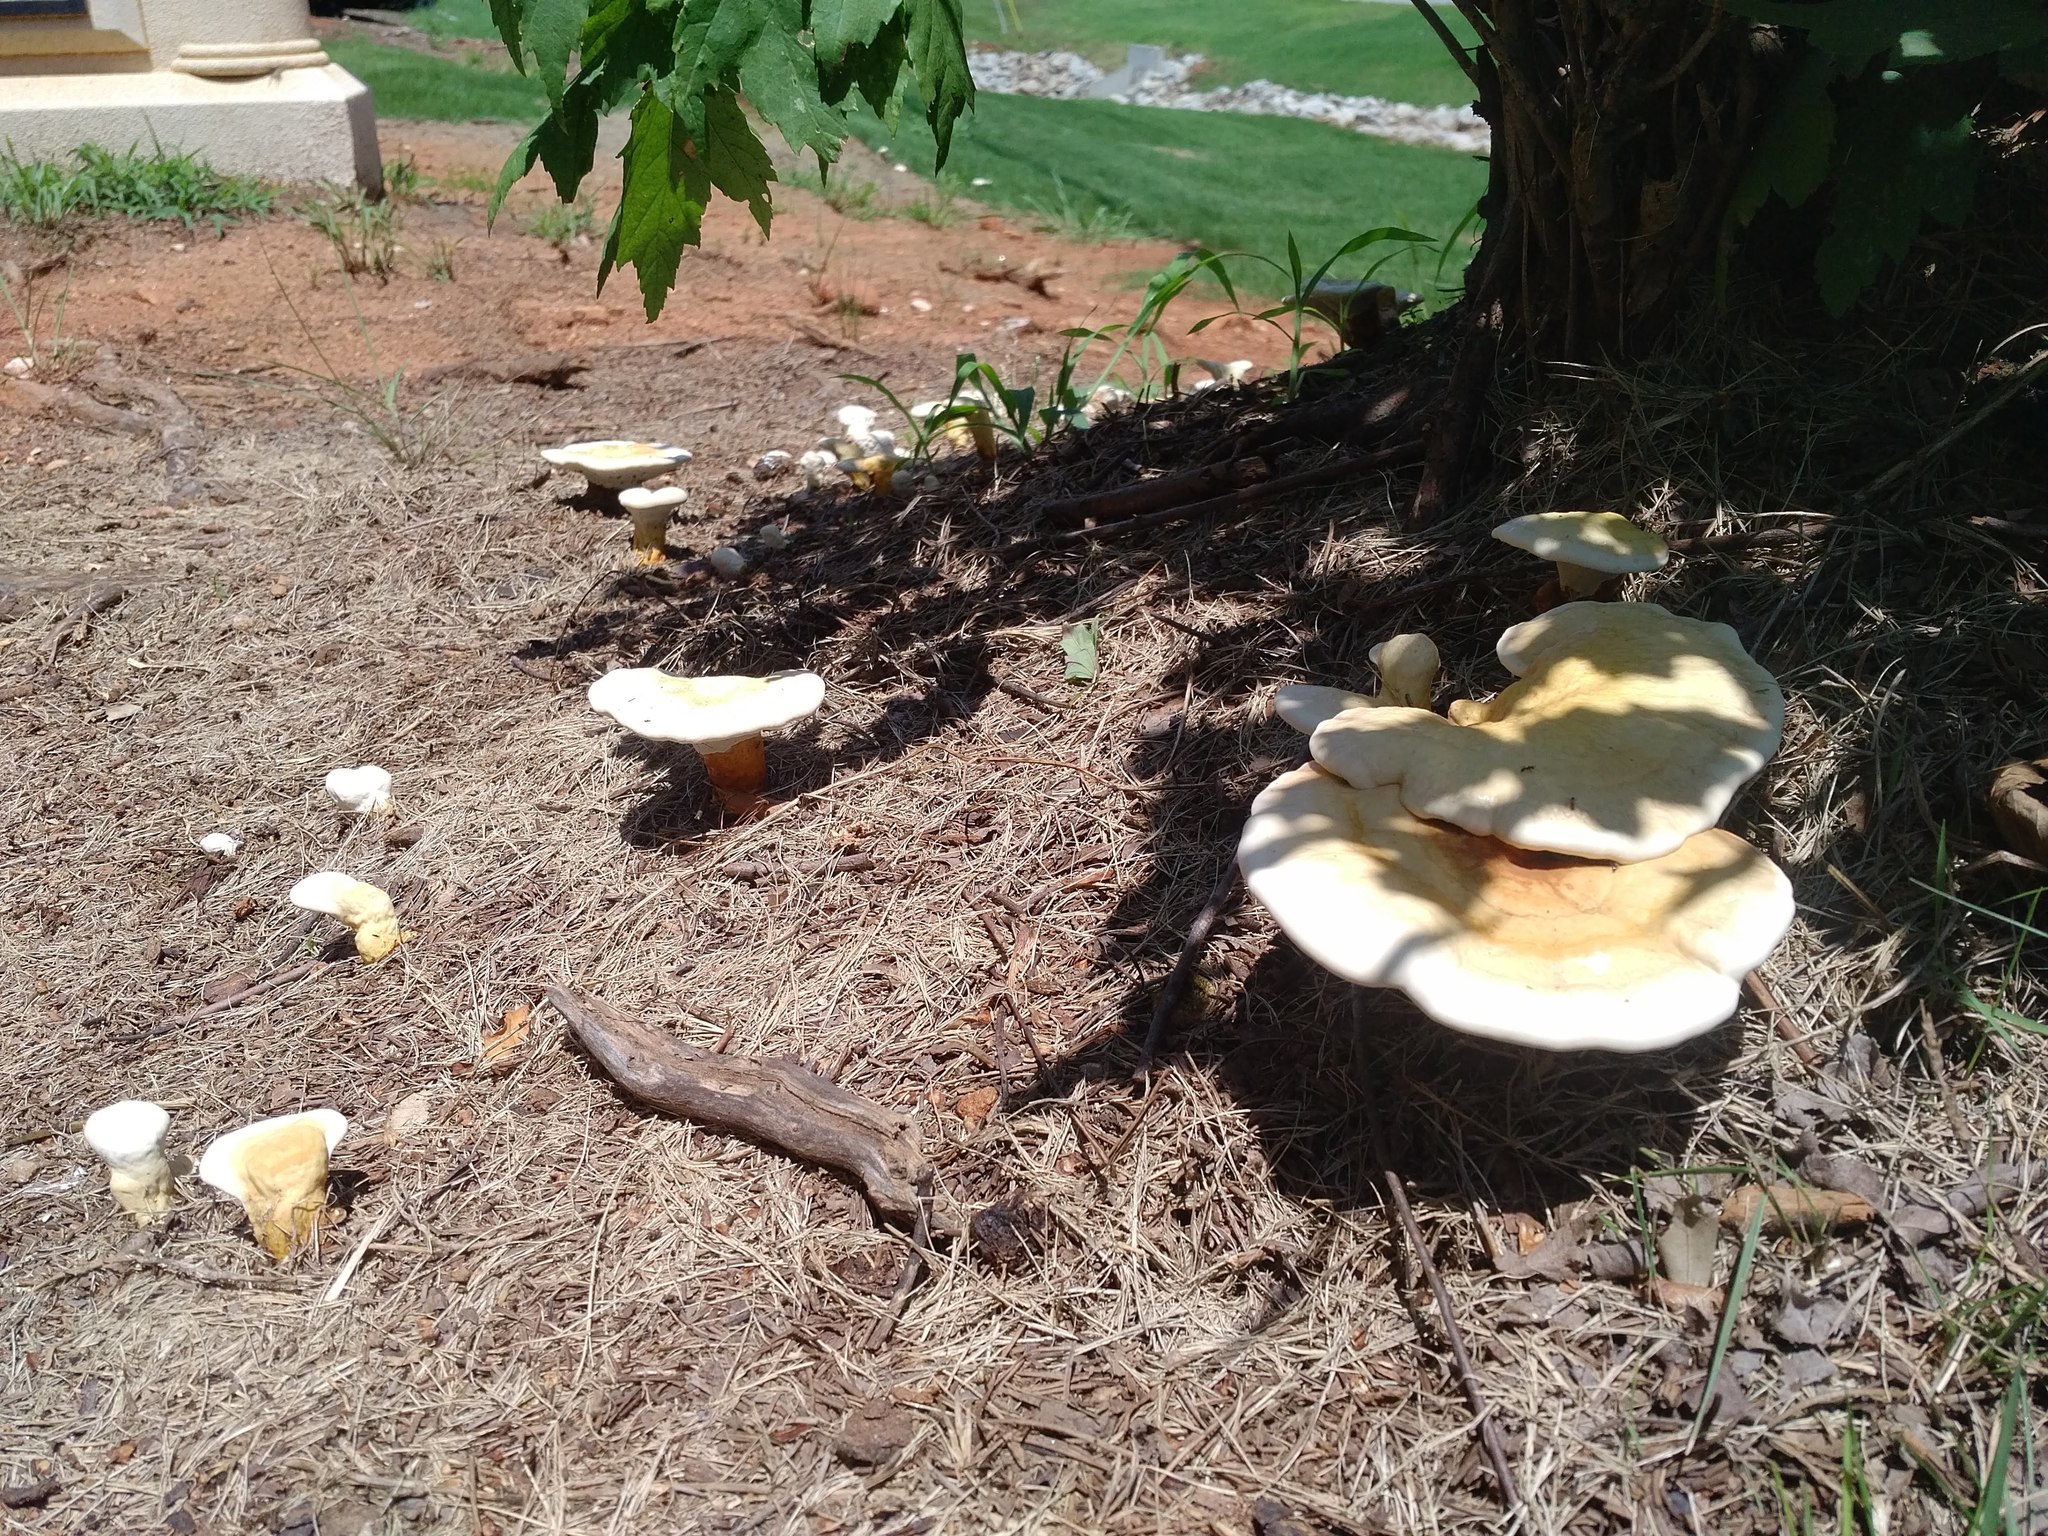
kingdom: Fungi
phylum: Basidiomycota
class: Agaricomycetes
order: Polyporales
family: Polyporaceae
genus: Ganoderma
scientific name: Ganoderma curtisii
